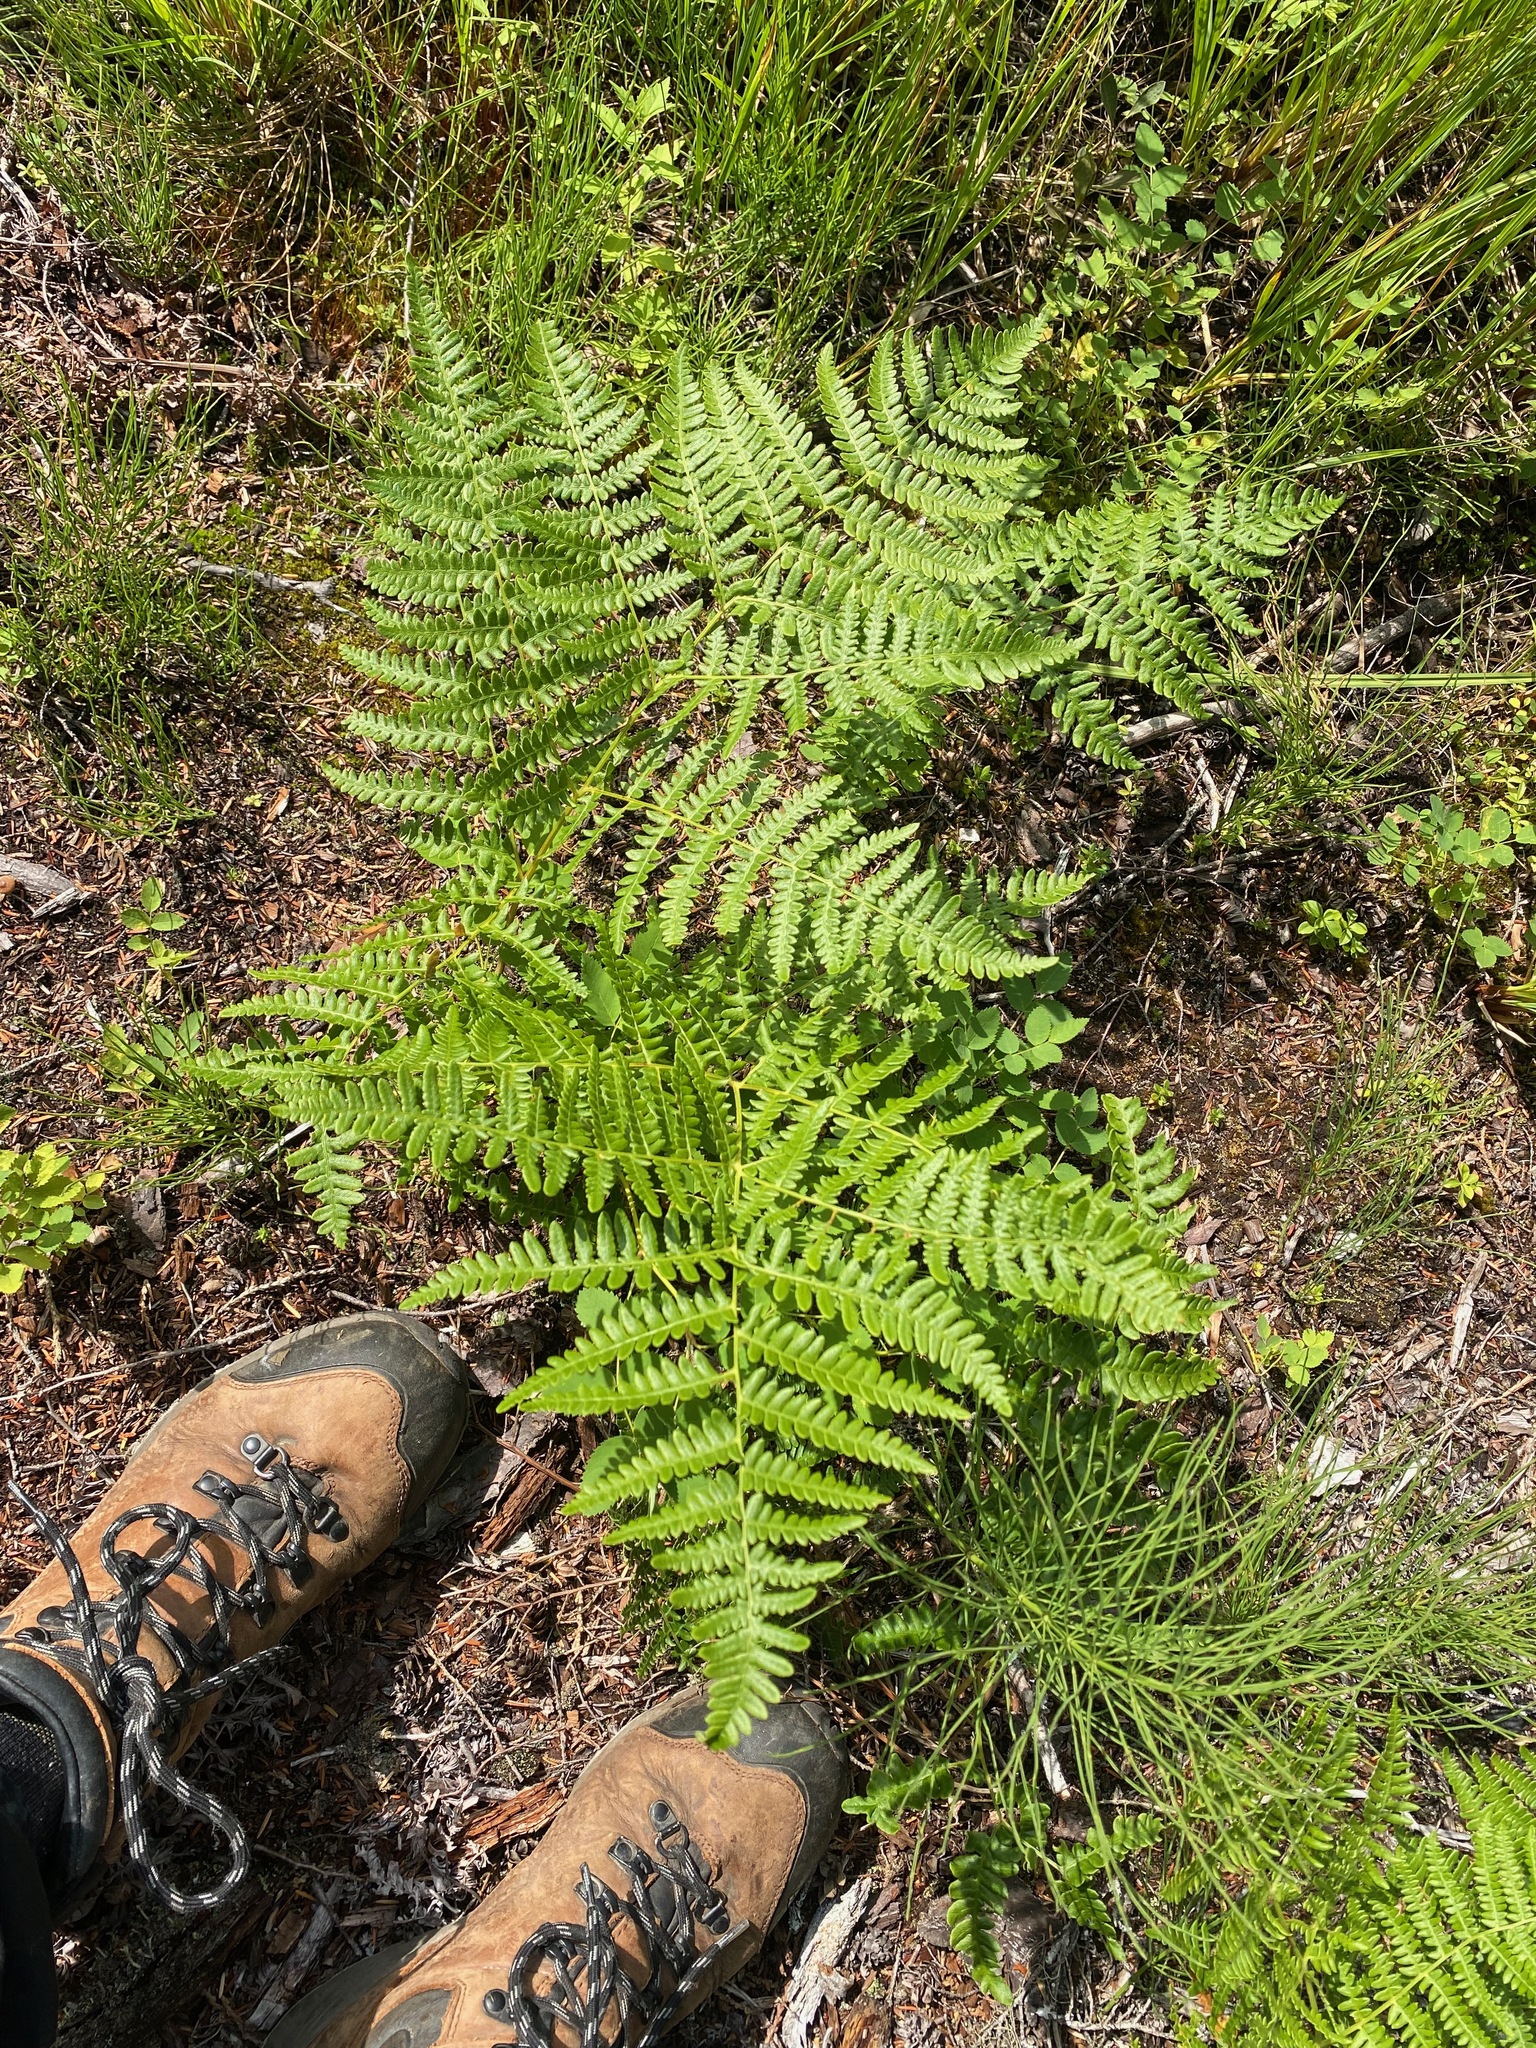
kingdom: Plantae
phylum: Tracheophyta
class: Polypodiopsida
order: Polypodiales
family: Dennstaedtiaceae
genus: Pteridium
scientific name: Pteridium aquilinum
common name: Bracken
